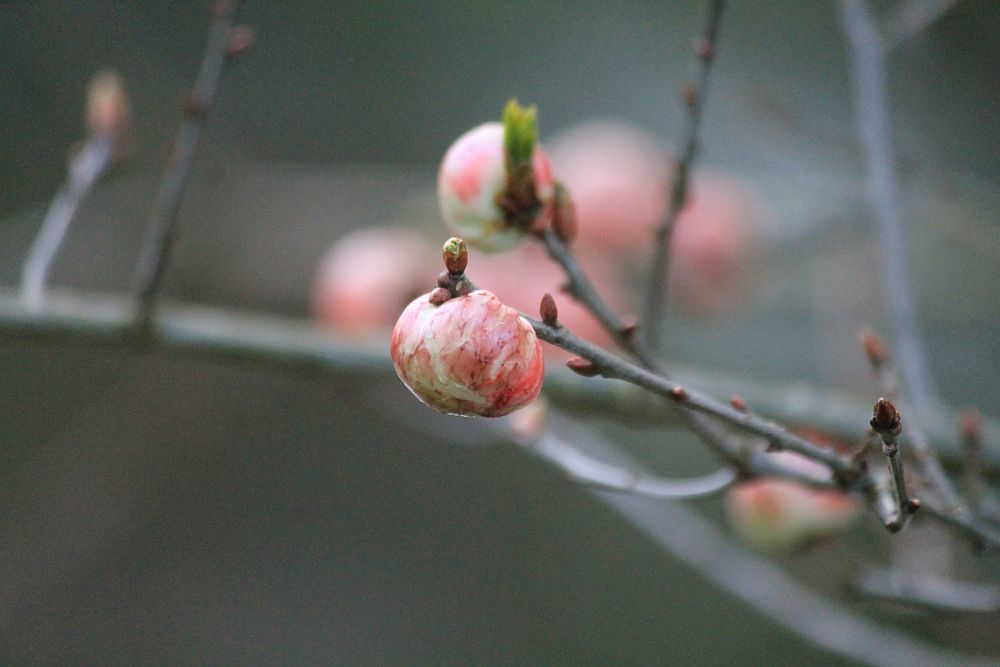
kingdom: Animalia
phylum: Arthropoda
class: Insecta
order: Hymenoptera
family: Cynipidae
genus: Biorhiza
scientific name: Biorhiza pallida
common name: Oak apple
